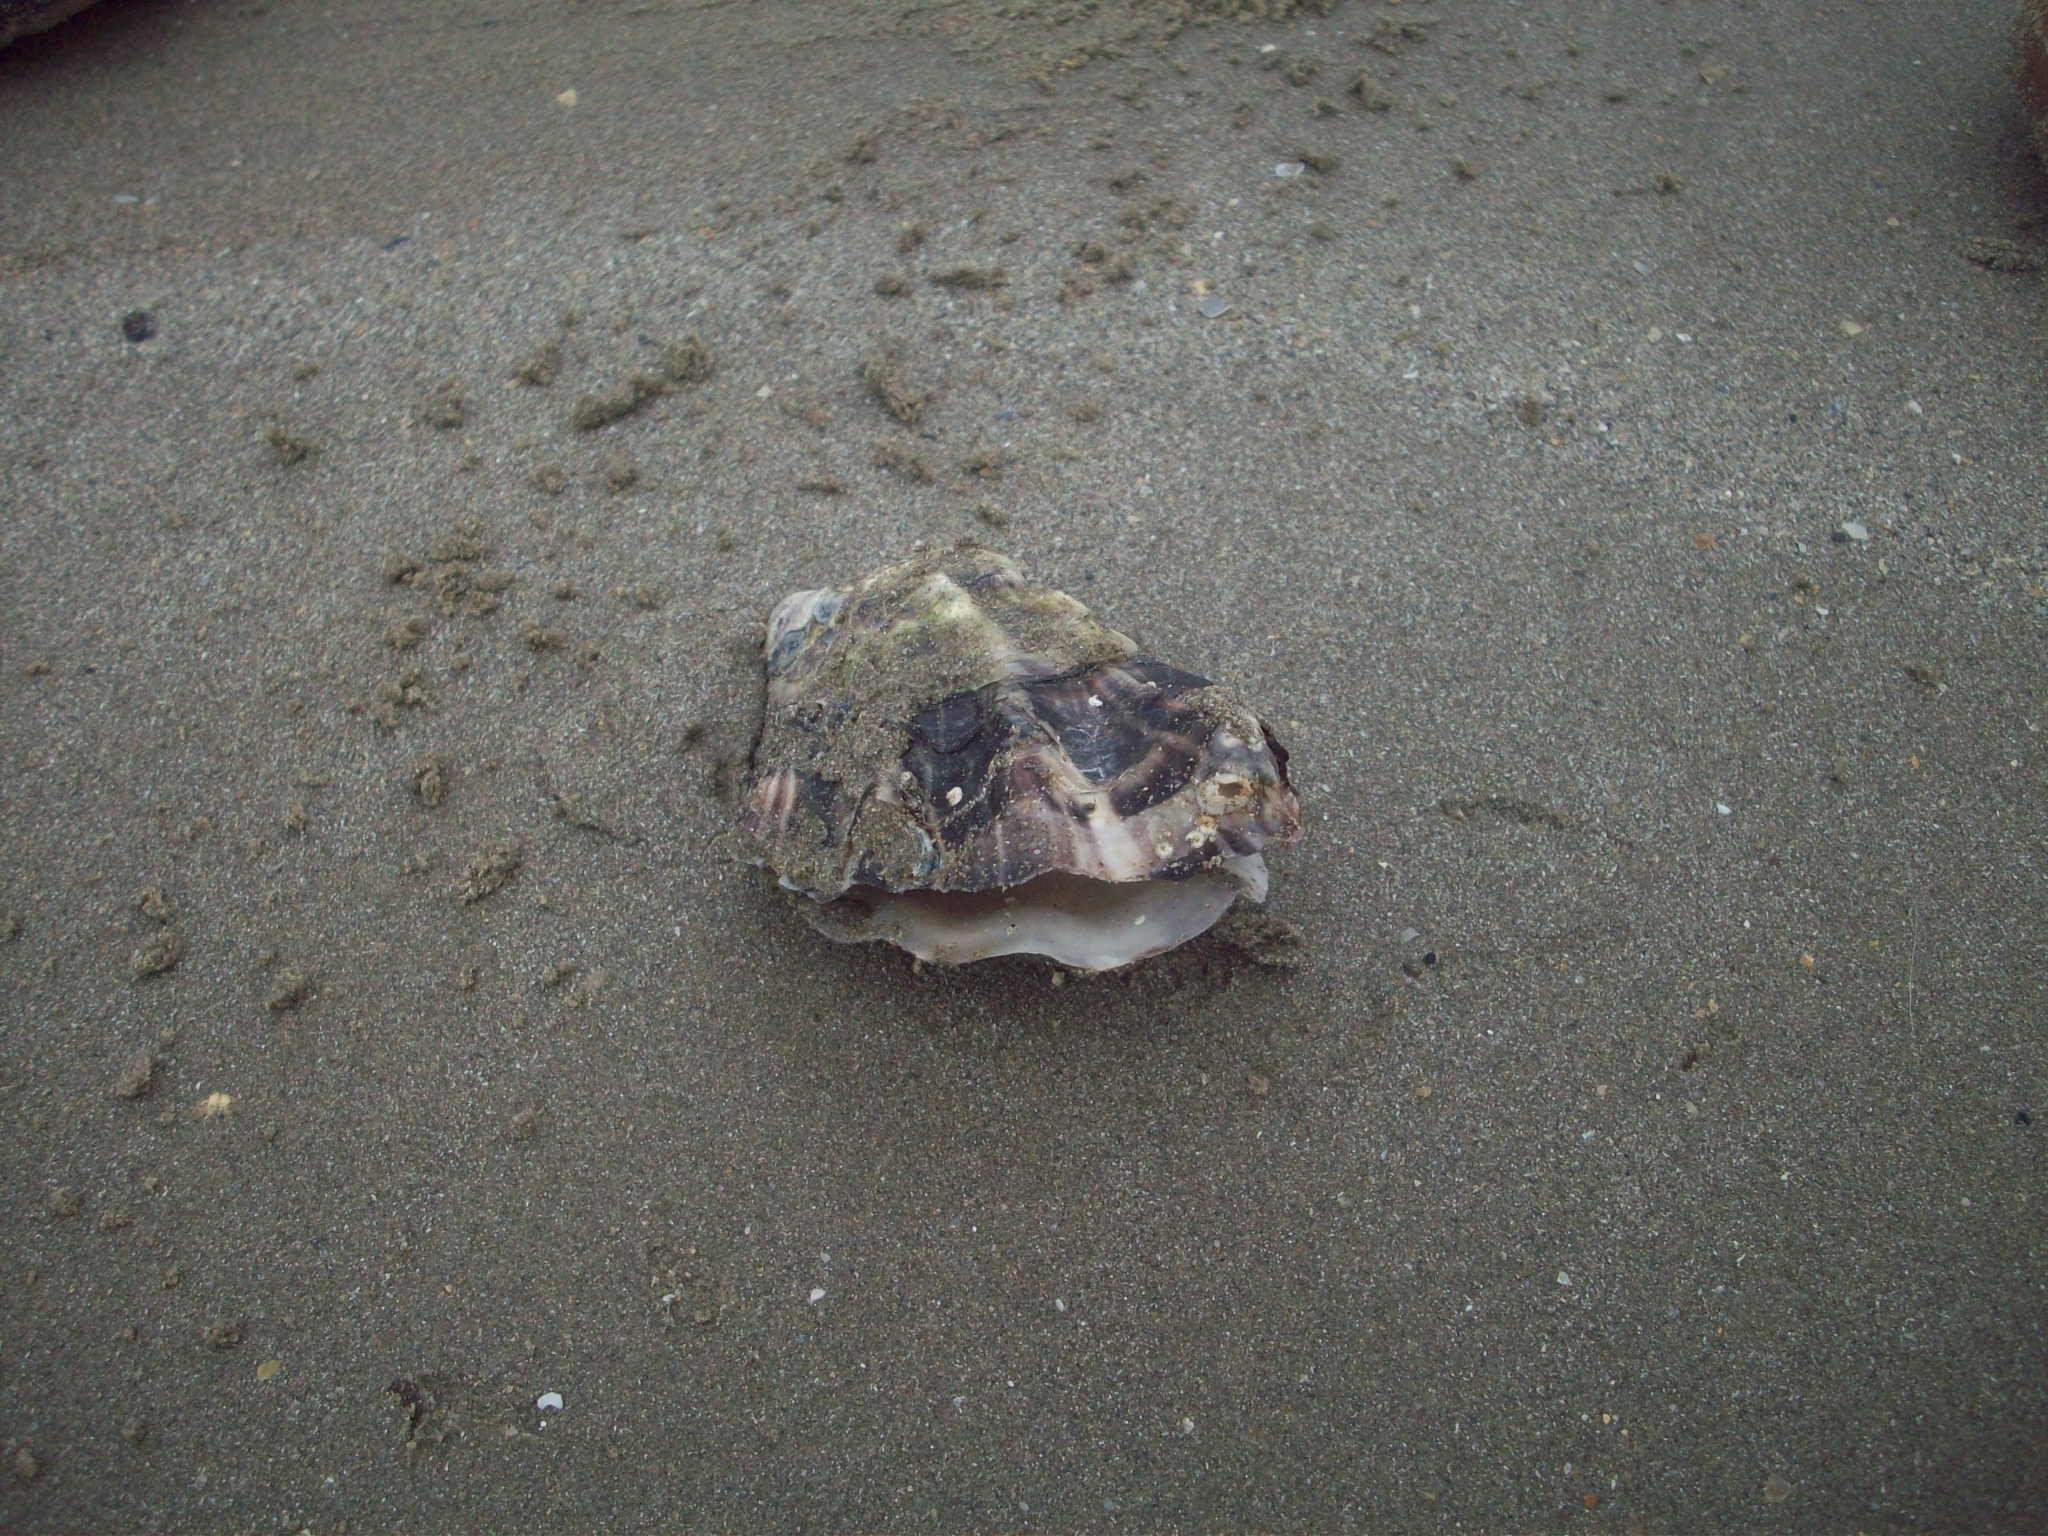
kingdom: Animalia
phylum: Mollusca
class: Bivalvia
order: Ostreida
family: Ostreidae
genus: Magallana
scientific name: Magallana gigas
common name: Pacific oyster
